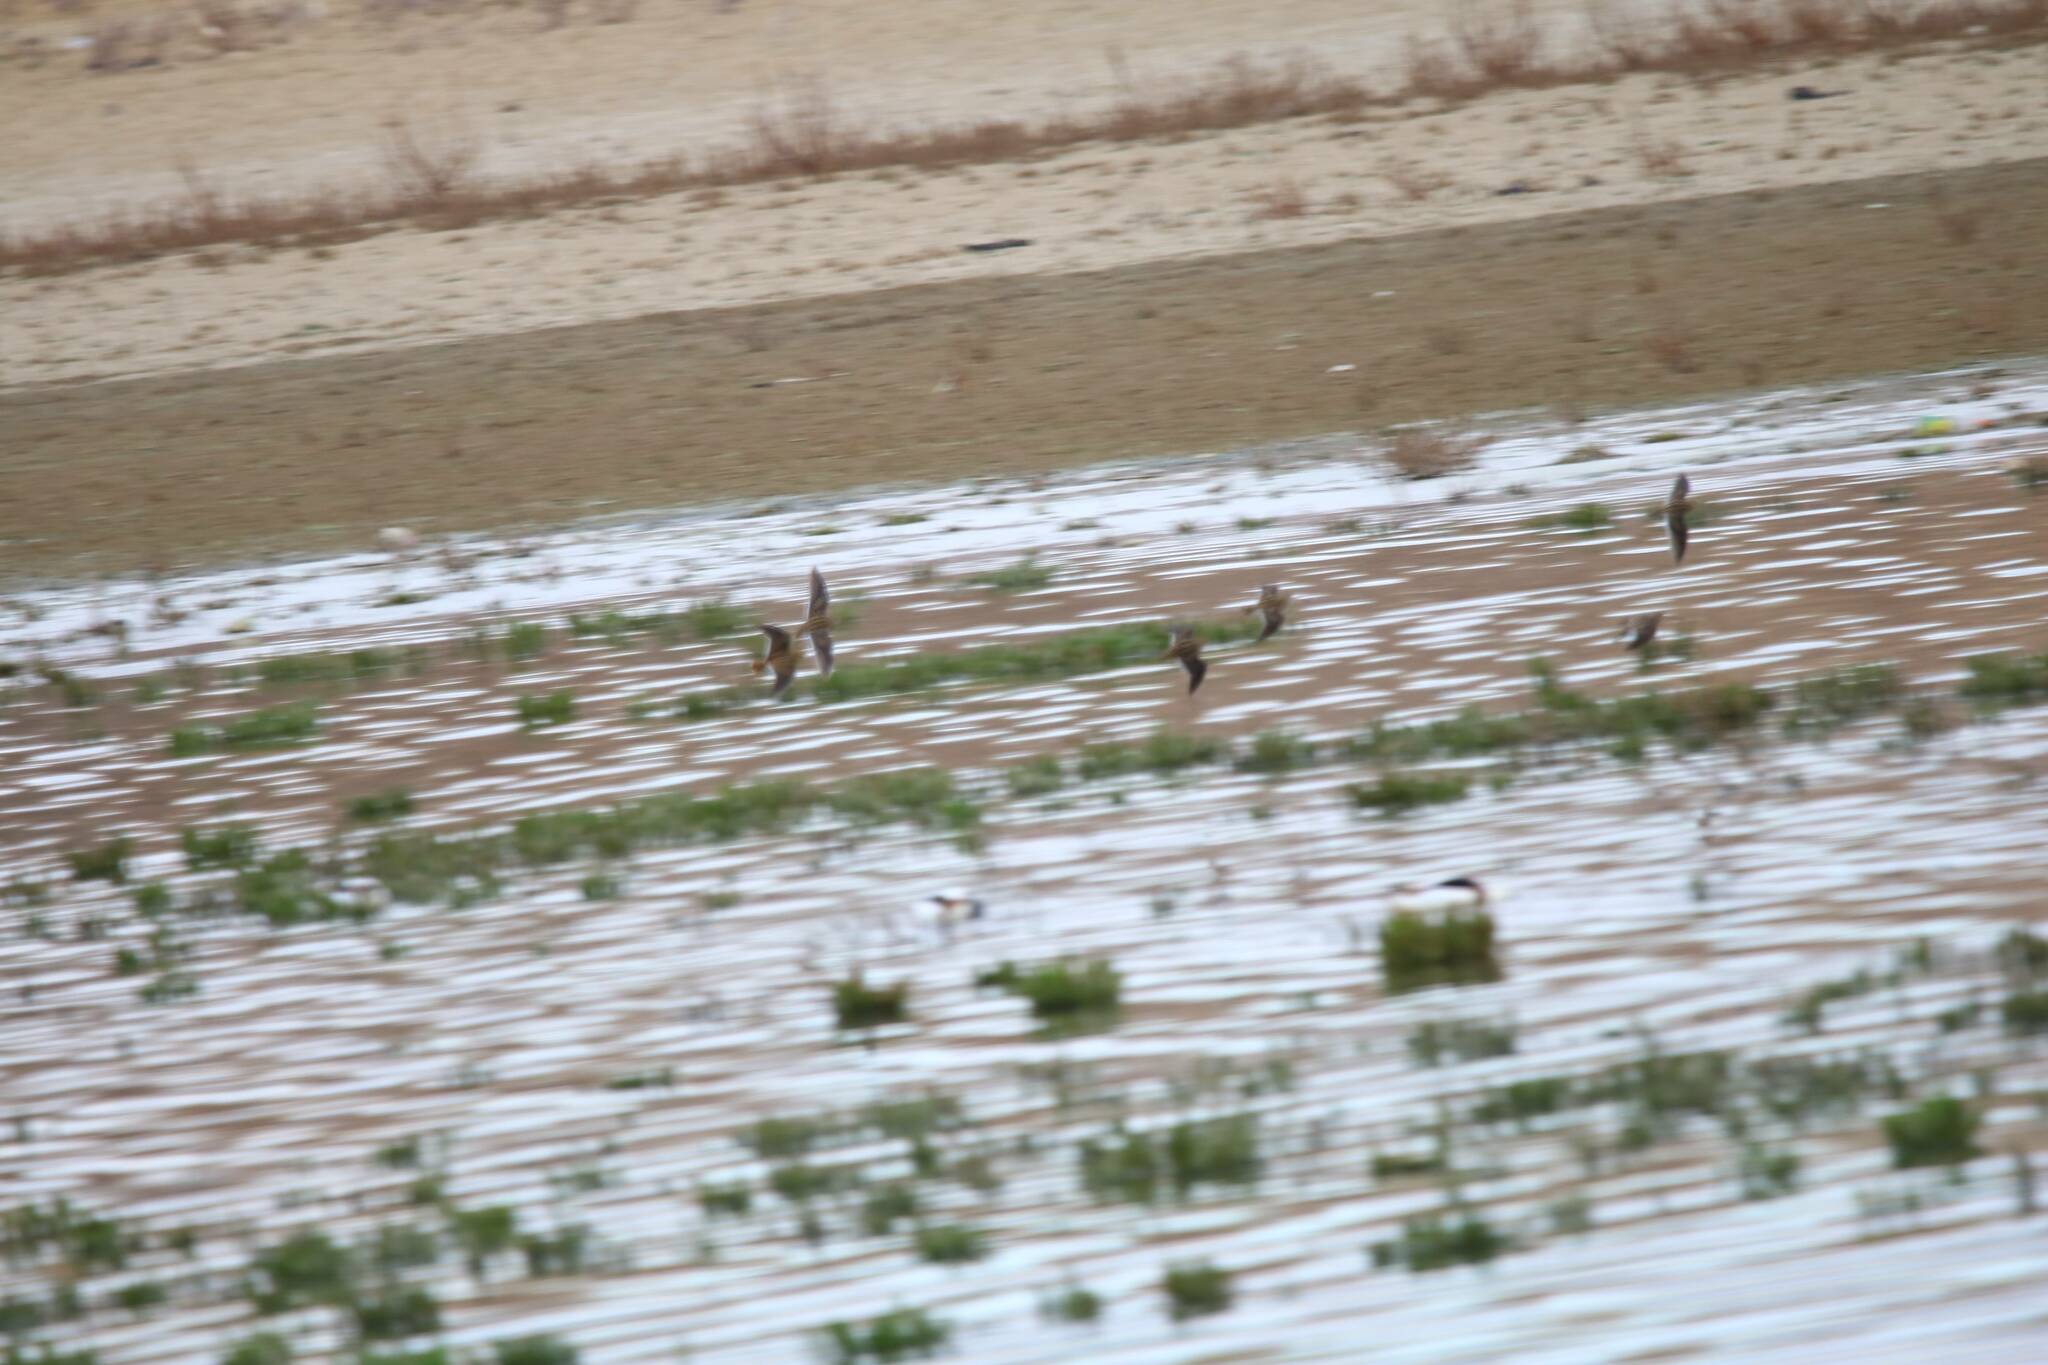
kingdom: Animalia
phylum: Chordata
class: Aves
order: Charadriiformes
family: Scolopacidae
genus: Calidris
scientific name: Calidris minuta
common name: Little stint
